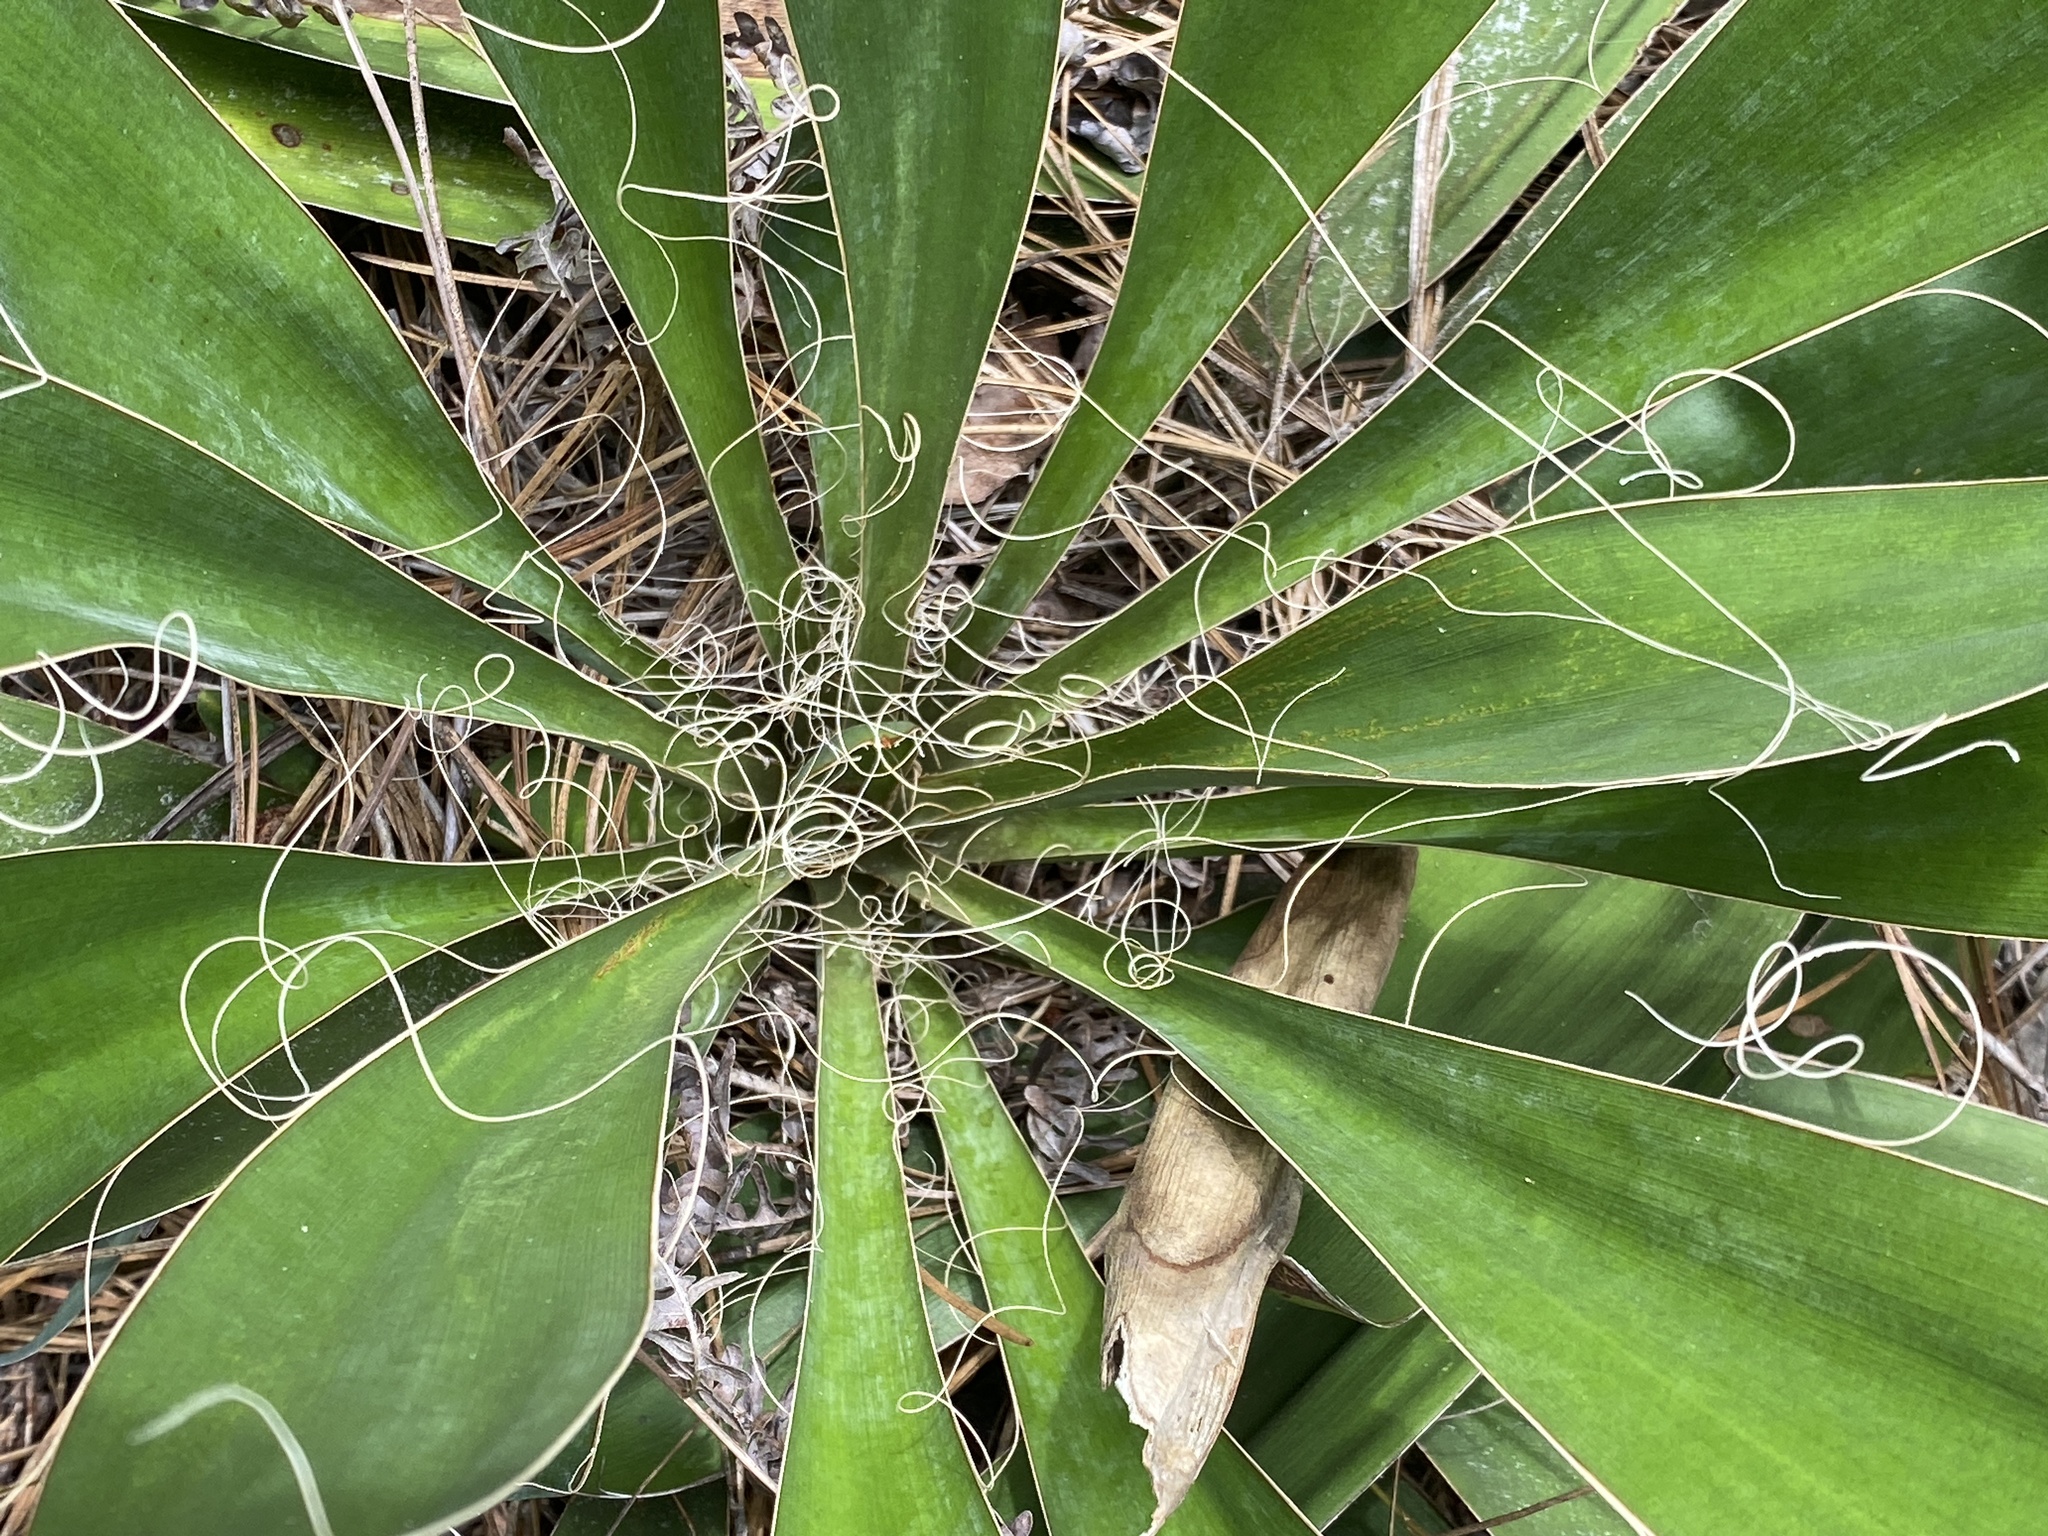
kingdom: Plantae
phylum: Tracheophyta
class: Liliopsida
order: Asparagales
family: Asparagaceae
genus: Yucca
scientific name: Yucca filamentosa
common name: Adam's-needle
